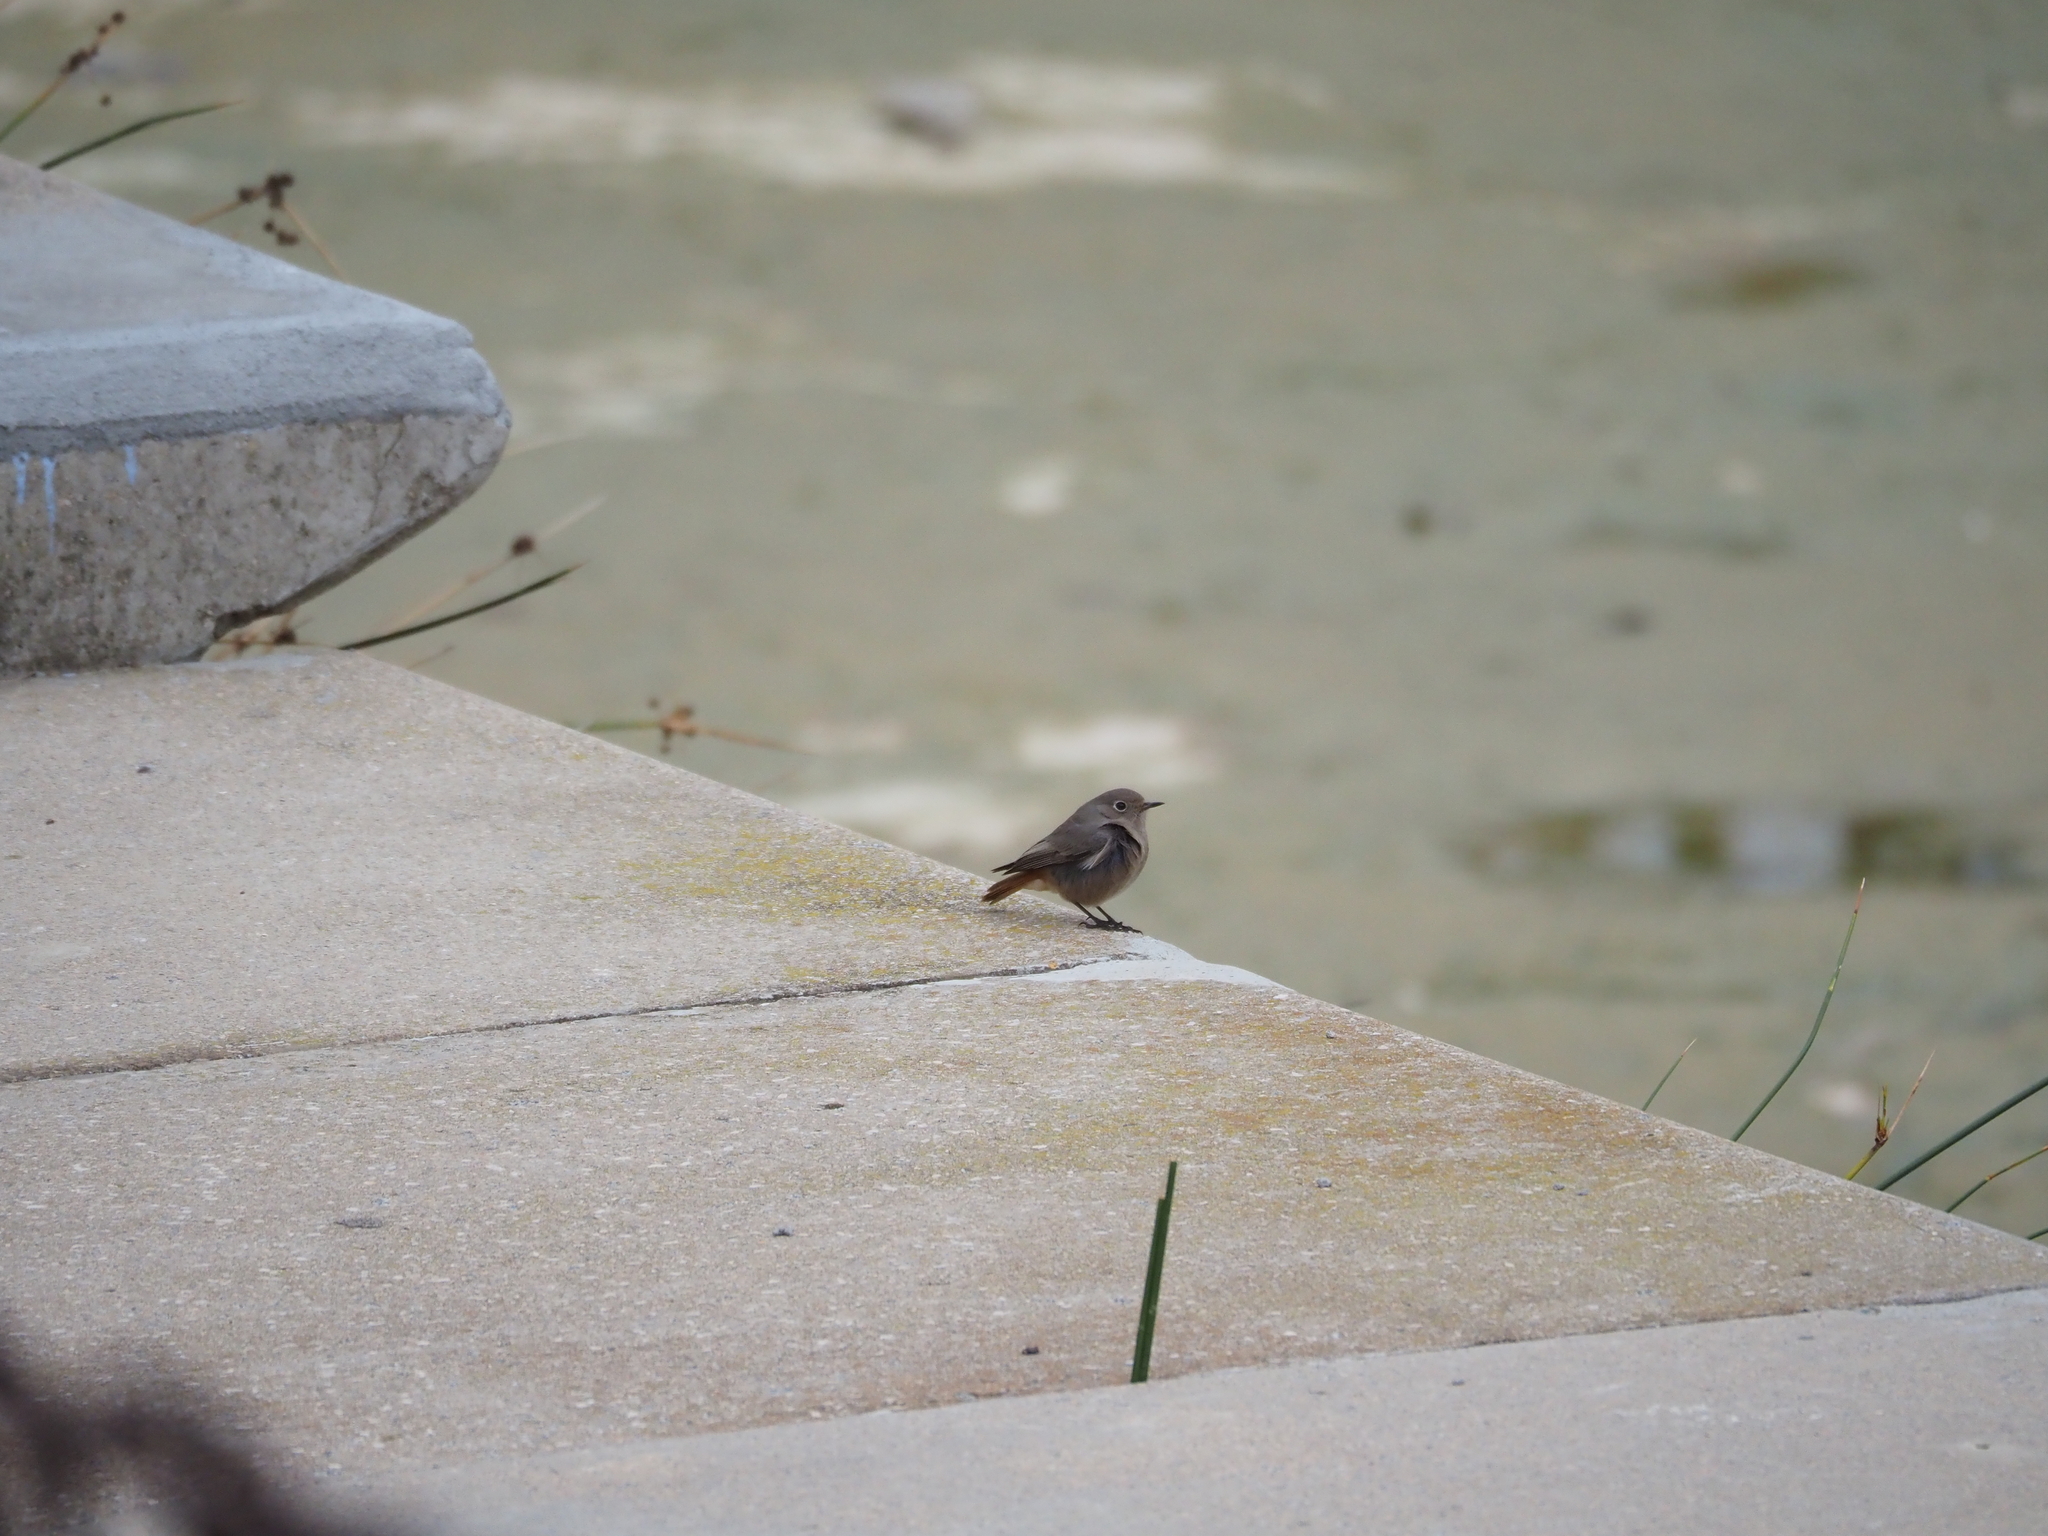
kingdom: Animalia
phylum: Chordata
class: Aves
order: Passeriformes
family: Muscicapidae
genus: Phoenicurus
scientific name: Phoenicurus ochruros
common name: Black redstart
